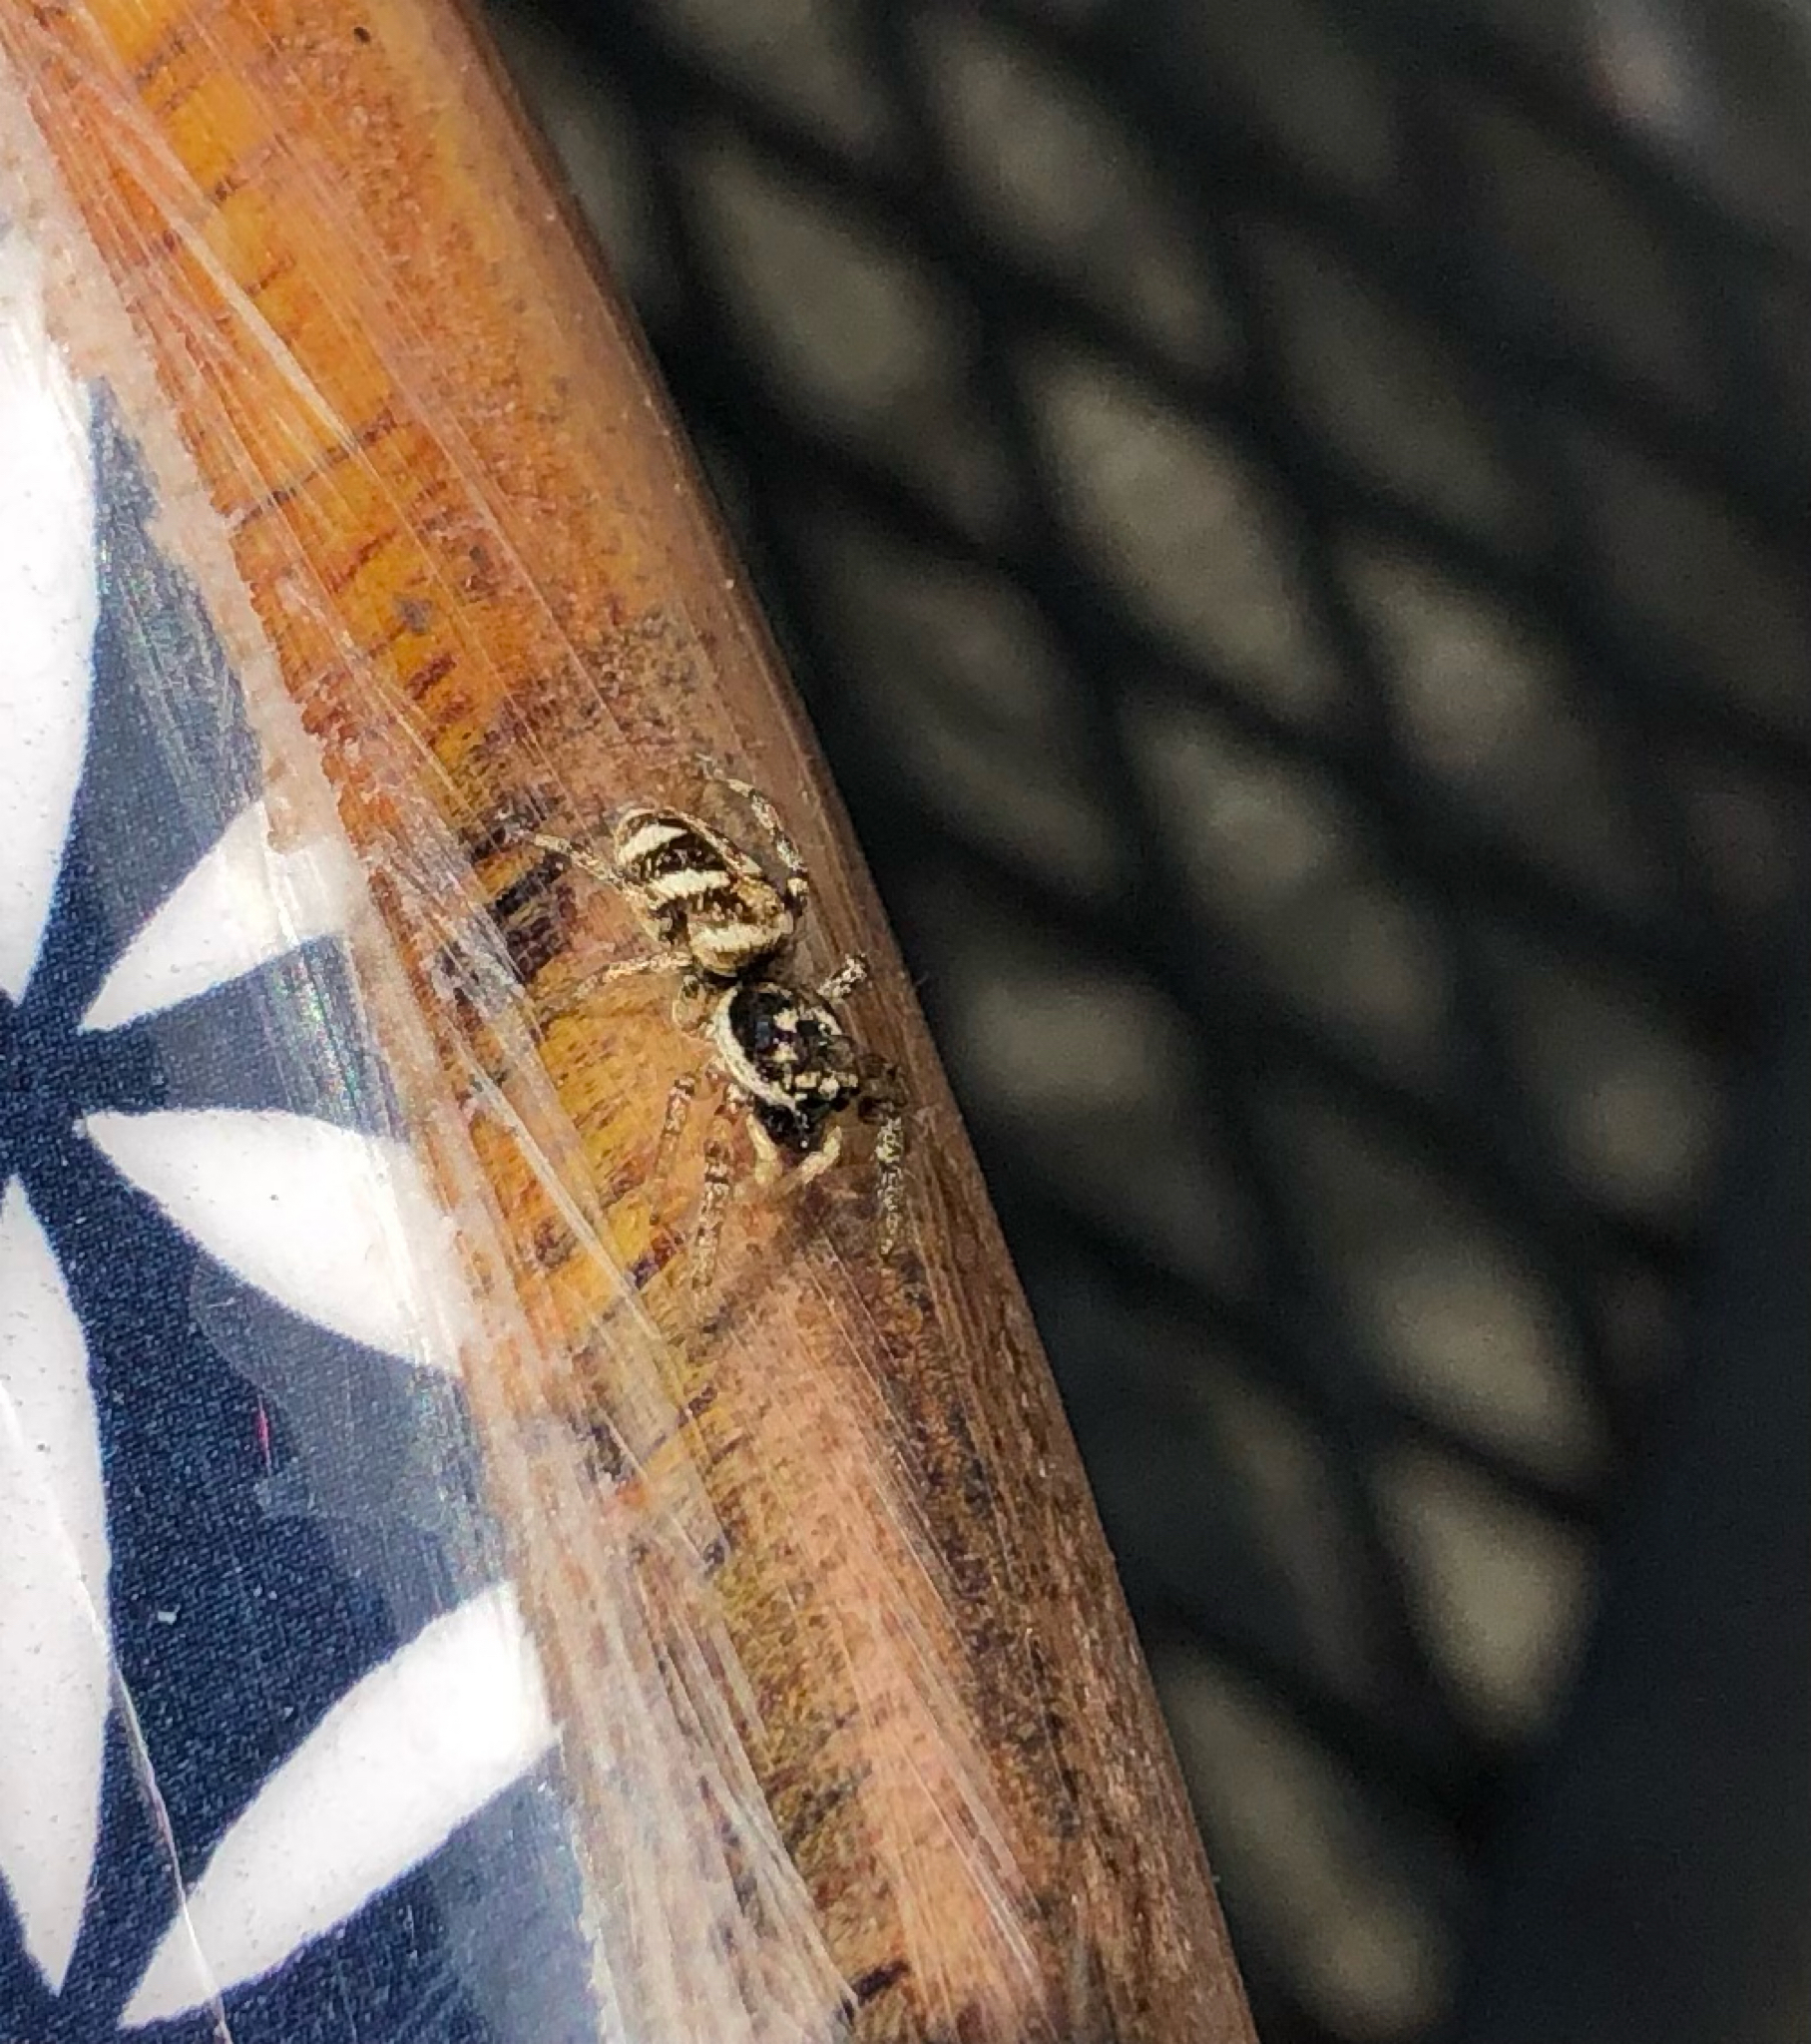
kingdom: Animalia
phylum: Arthropoda
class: Arachnida
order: Araneae
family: Salticidae
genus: Salticus
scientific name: Salticus scenicus
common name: Zebra jumper
